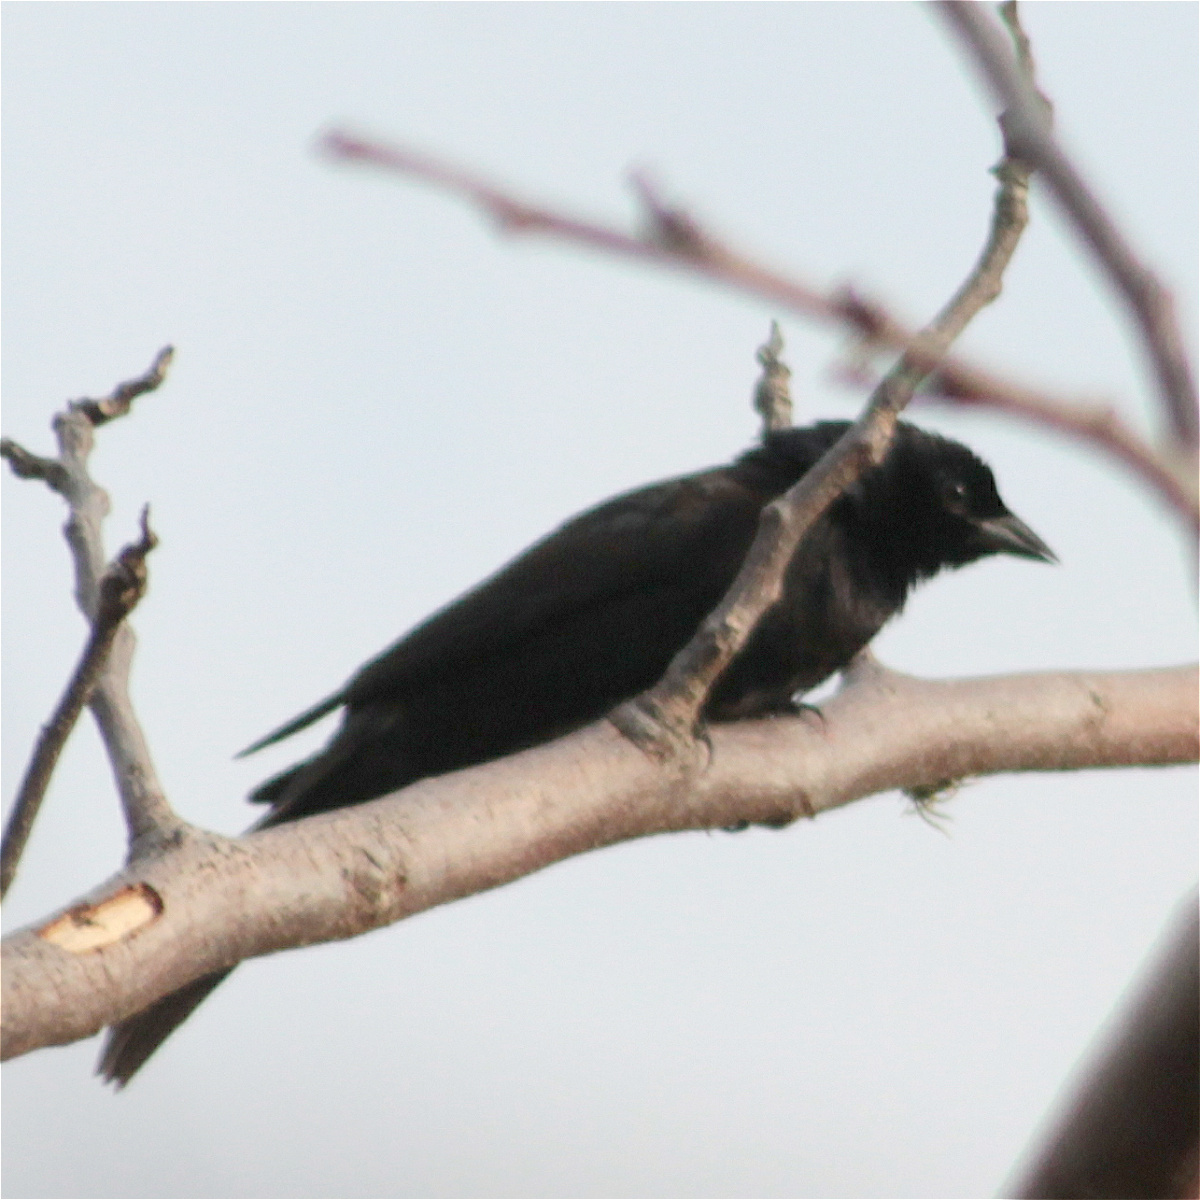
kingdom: Animalia
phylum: Chordata
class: Aves
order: Passeriformes
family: Icteridae
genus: Molothrus
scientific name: Molothrus bonariensis
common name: Shiny cowbird
